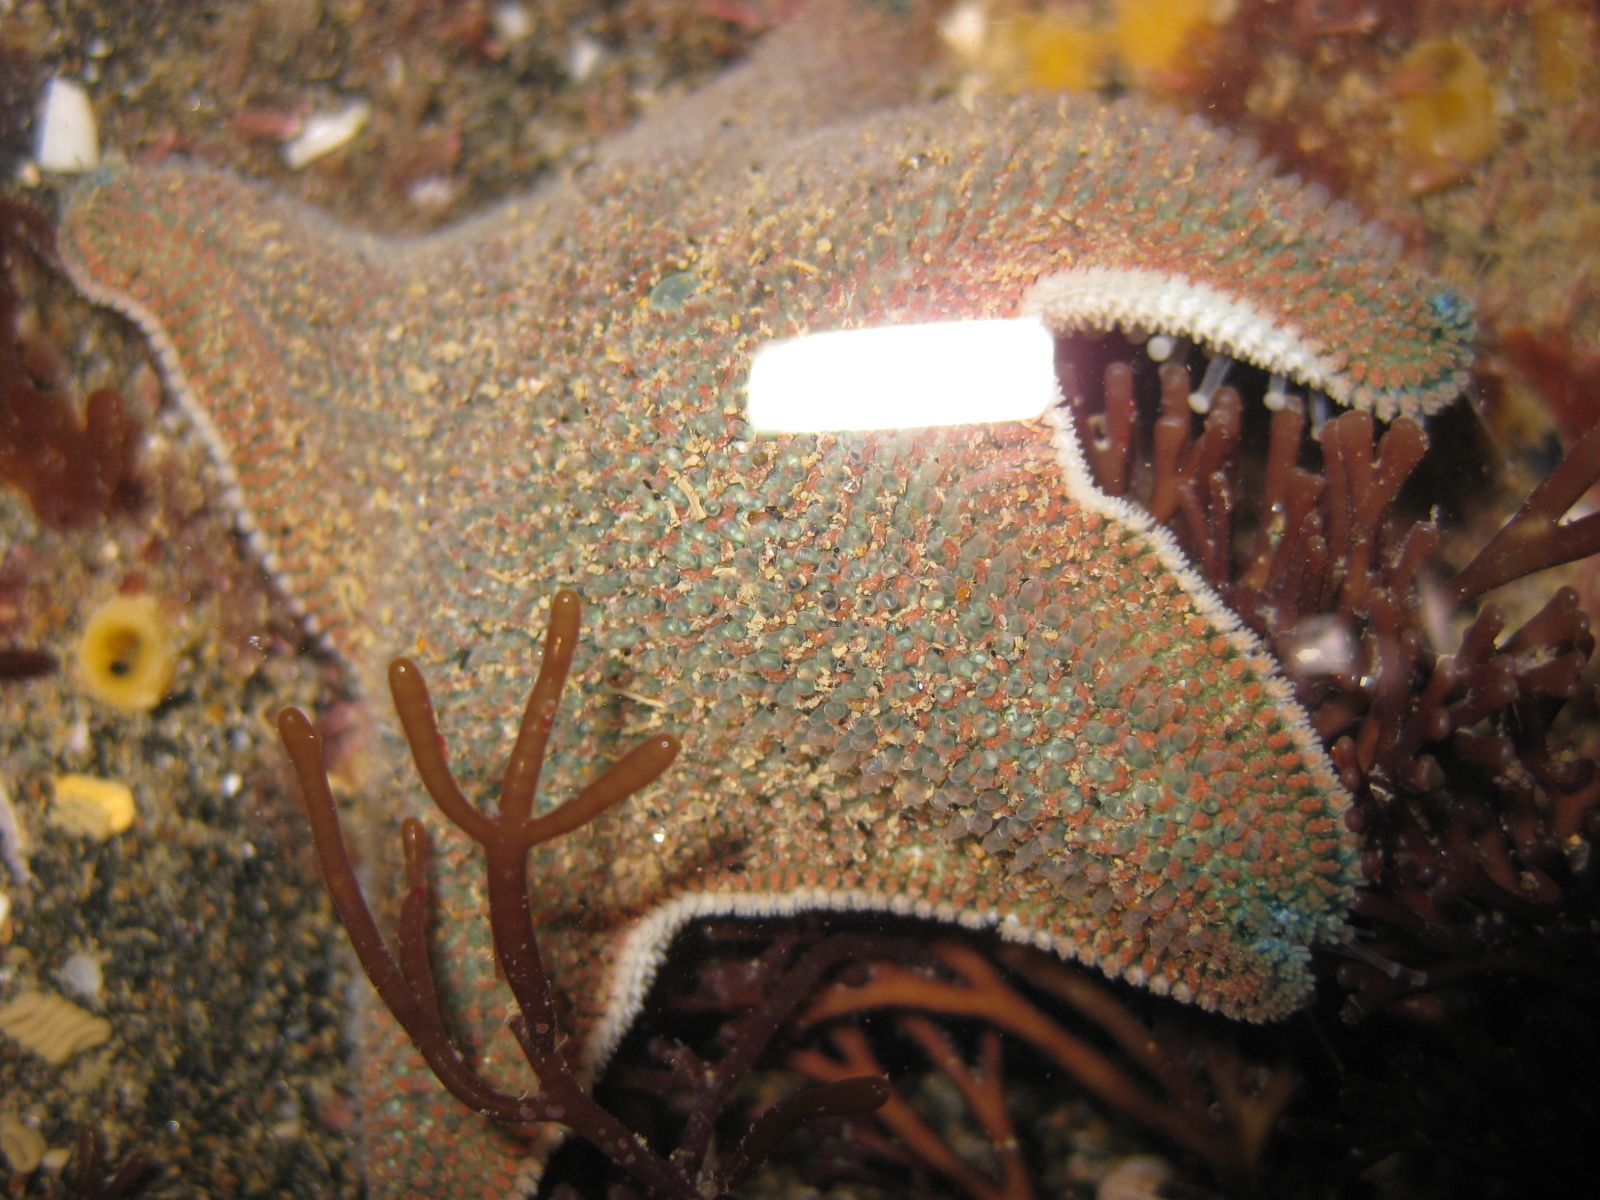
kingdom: Animalia
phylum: Echinodermata
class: Asteroidea
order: Valvatida
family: Asterinidae
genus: Patiriella
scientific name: Patiriella regularis
